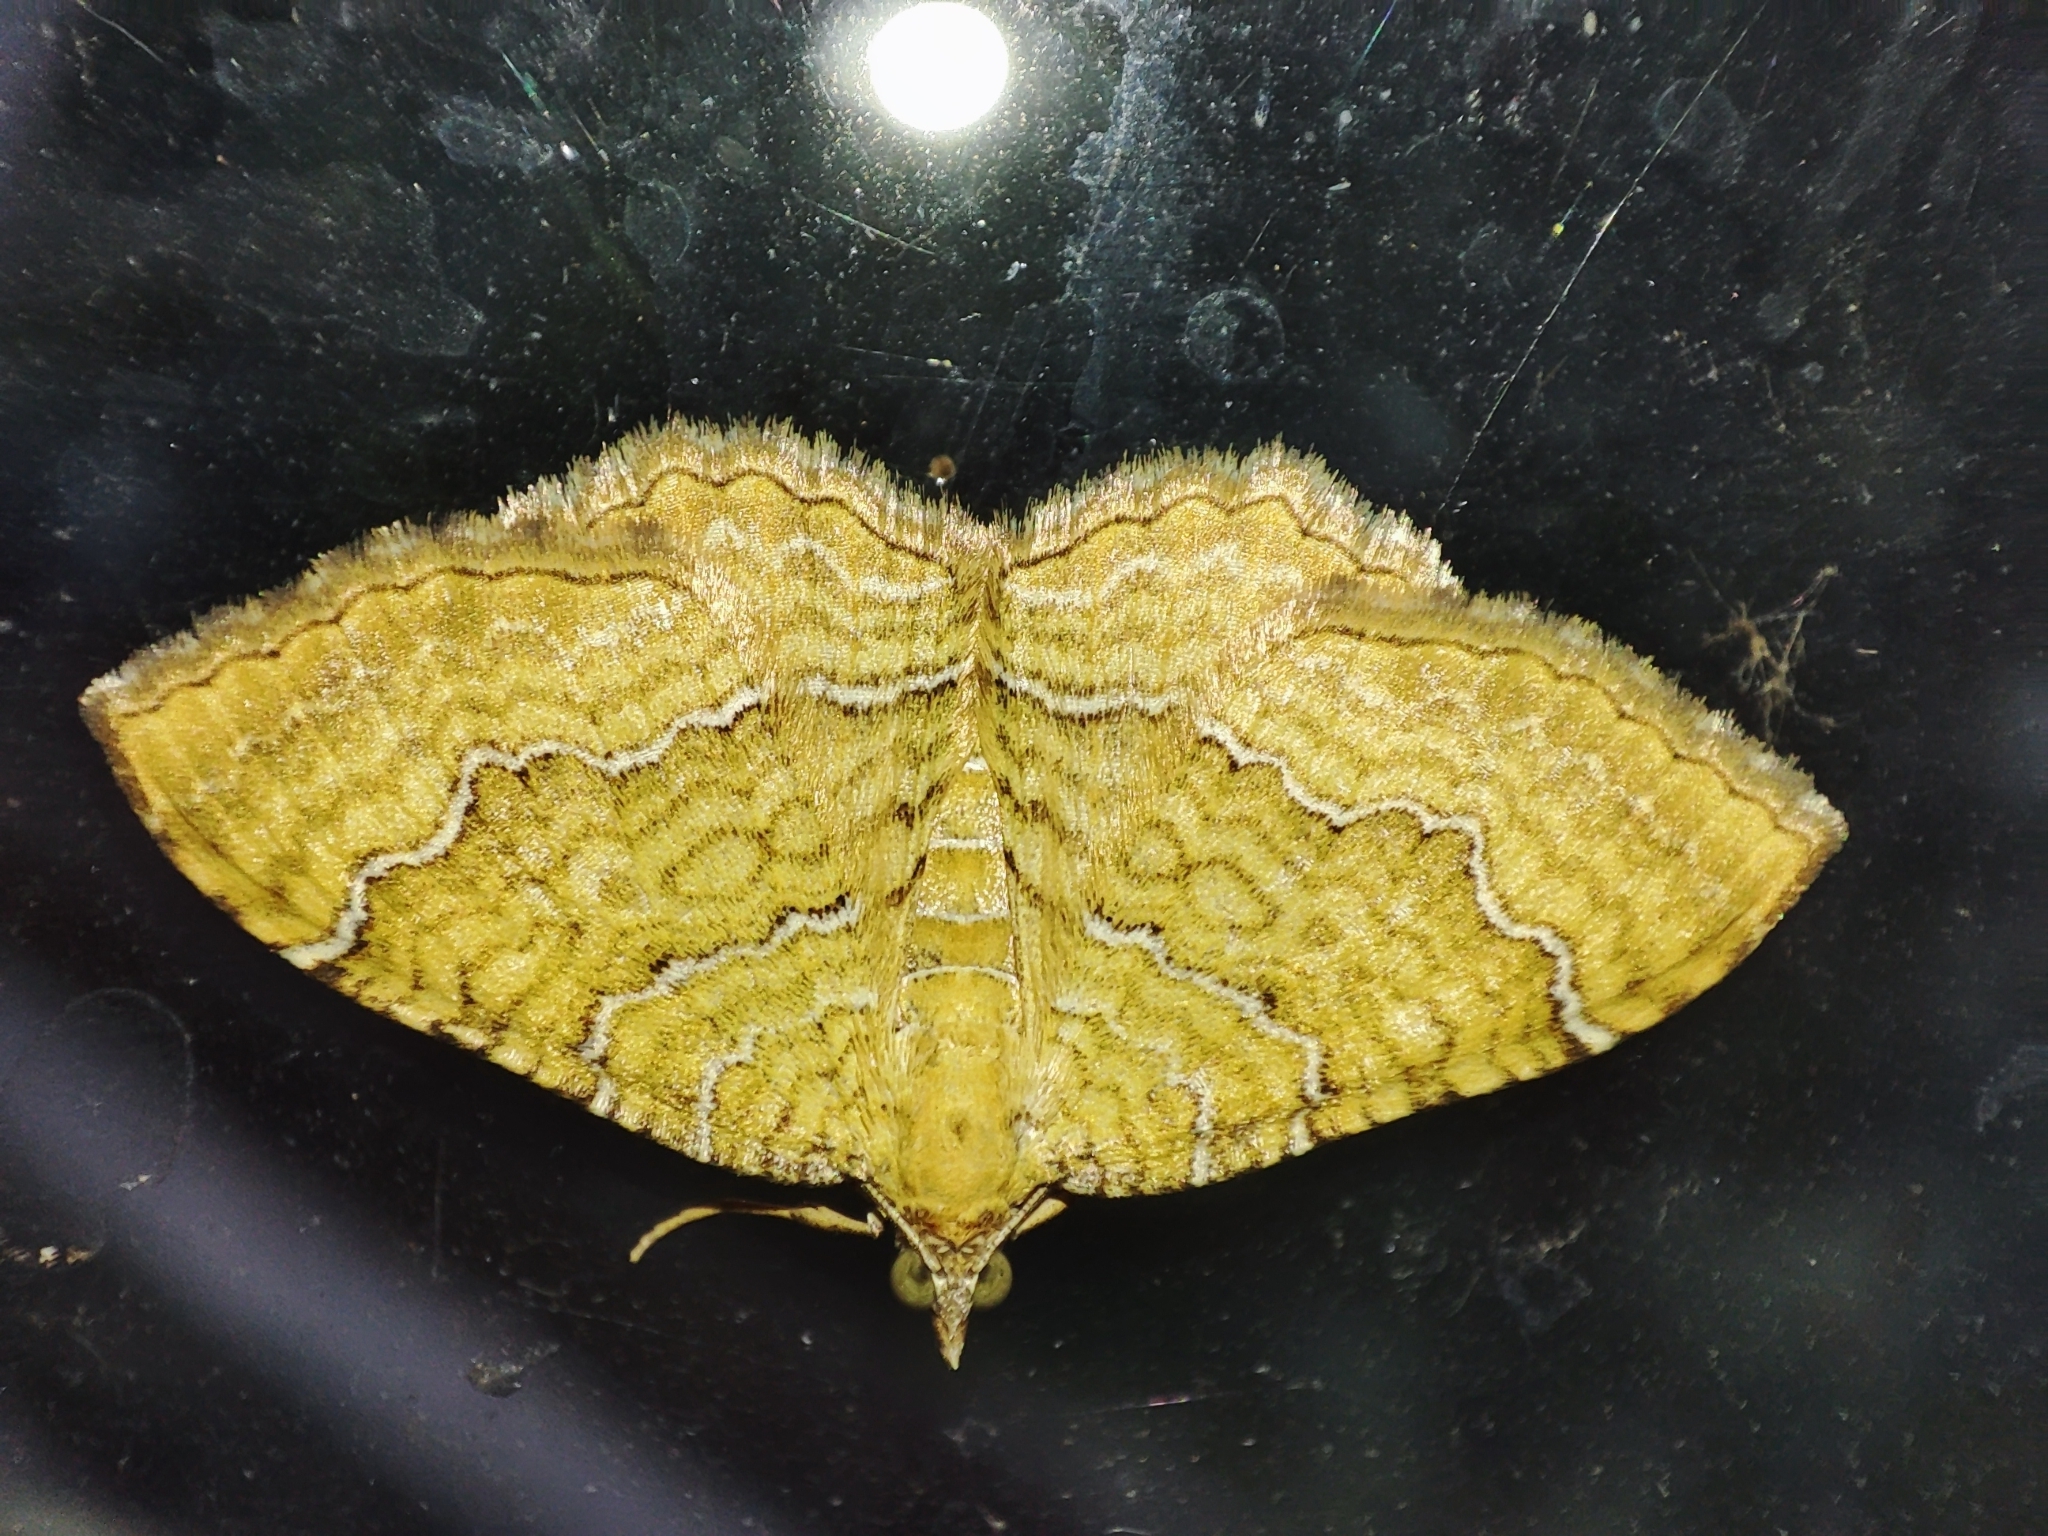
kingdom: Animalia
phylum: Arthropoda
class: Insecta
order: Lepidoptera
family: Geometridae
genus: Camptogramma
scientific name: Camptogramma bilineata
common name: Yellow shell
